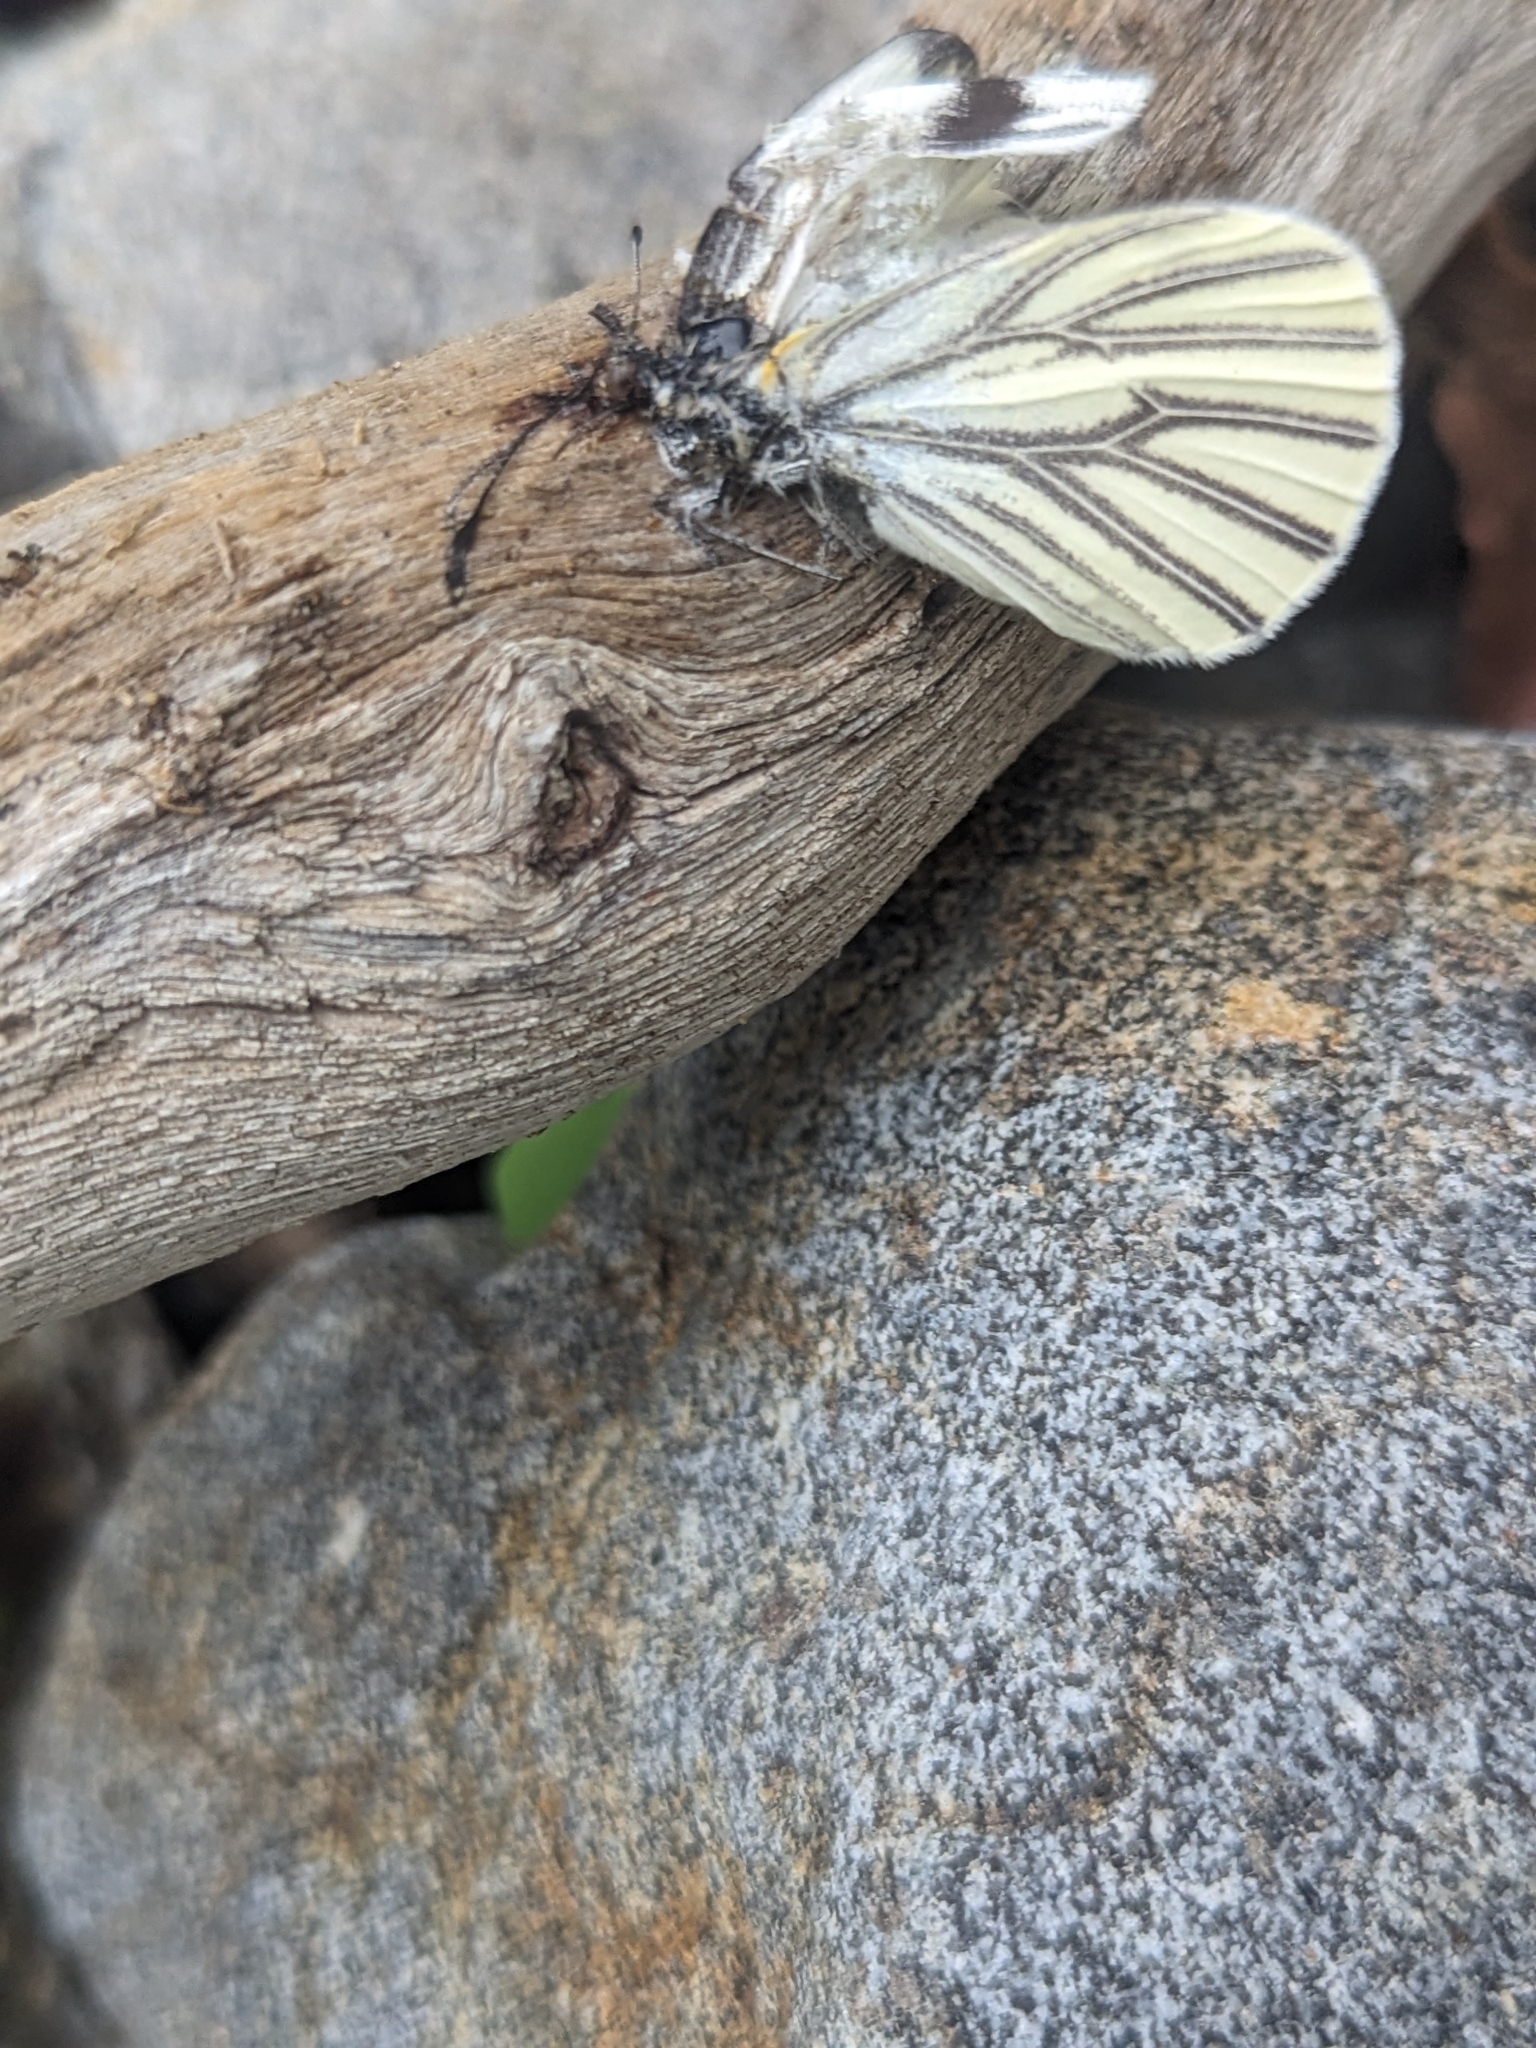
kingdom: Animalia
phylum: Arthropoda
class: Insecta
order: Lepidoptera
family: Pieridae
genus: Pieris
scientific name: Pieris marginalis
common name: Margined white
